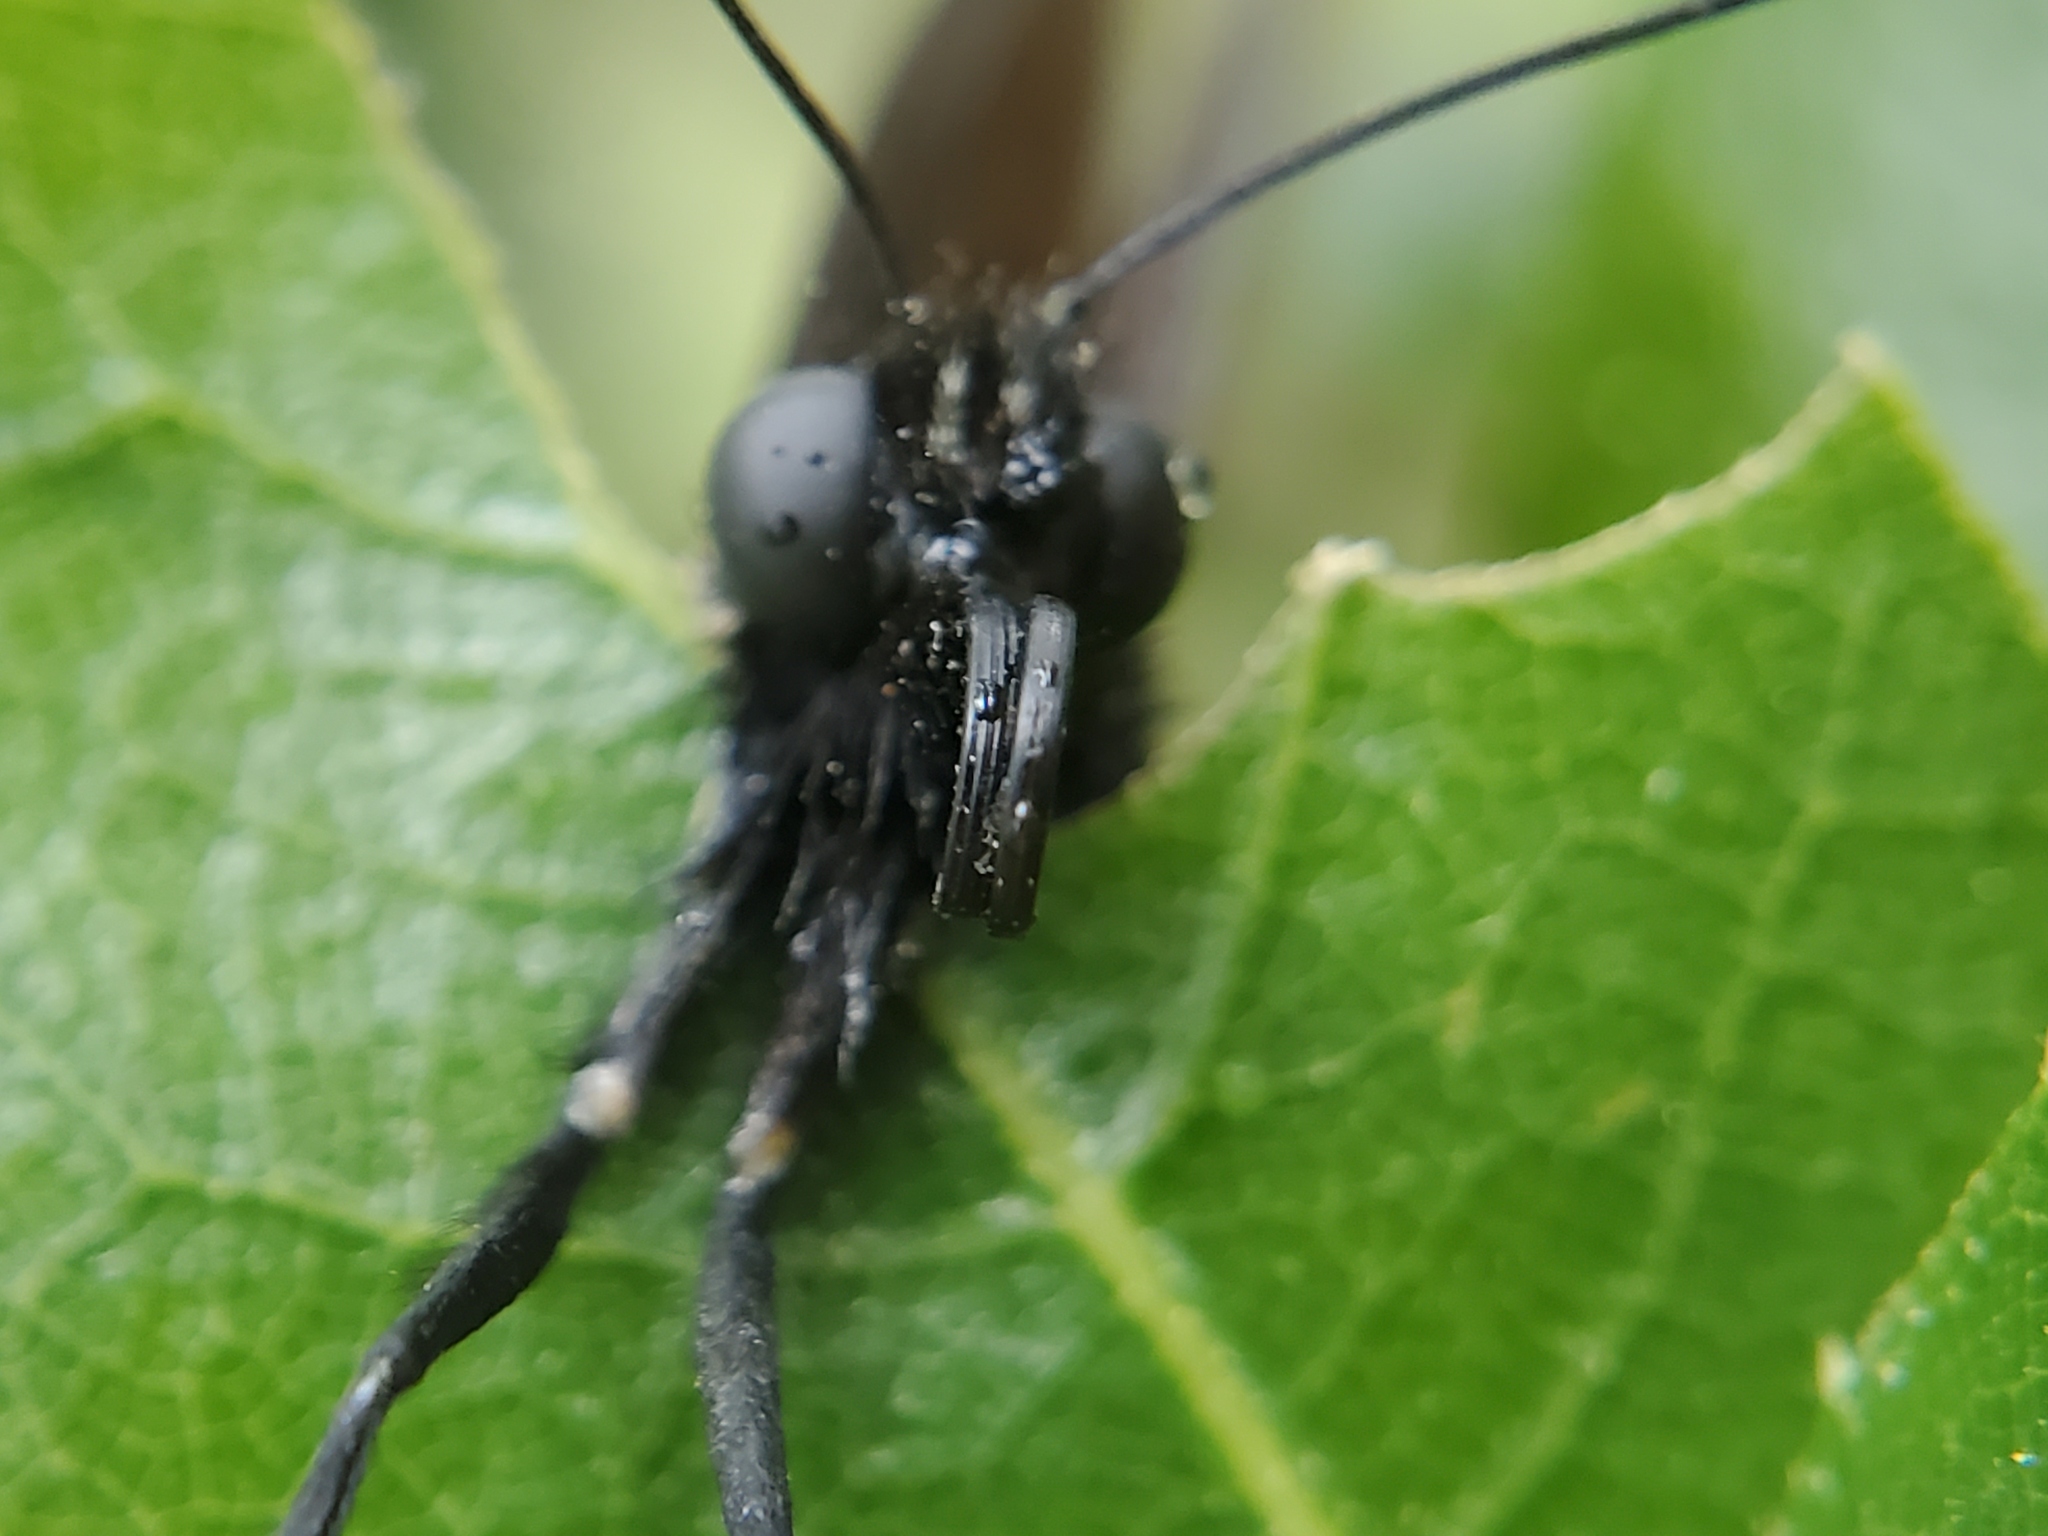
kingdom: Animalia
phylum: Arthropoda
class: Insecta
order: Lepidoptera
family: Papilionidae
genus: Battus
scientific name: Battus philenor
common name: Pipevine swallowtail
